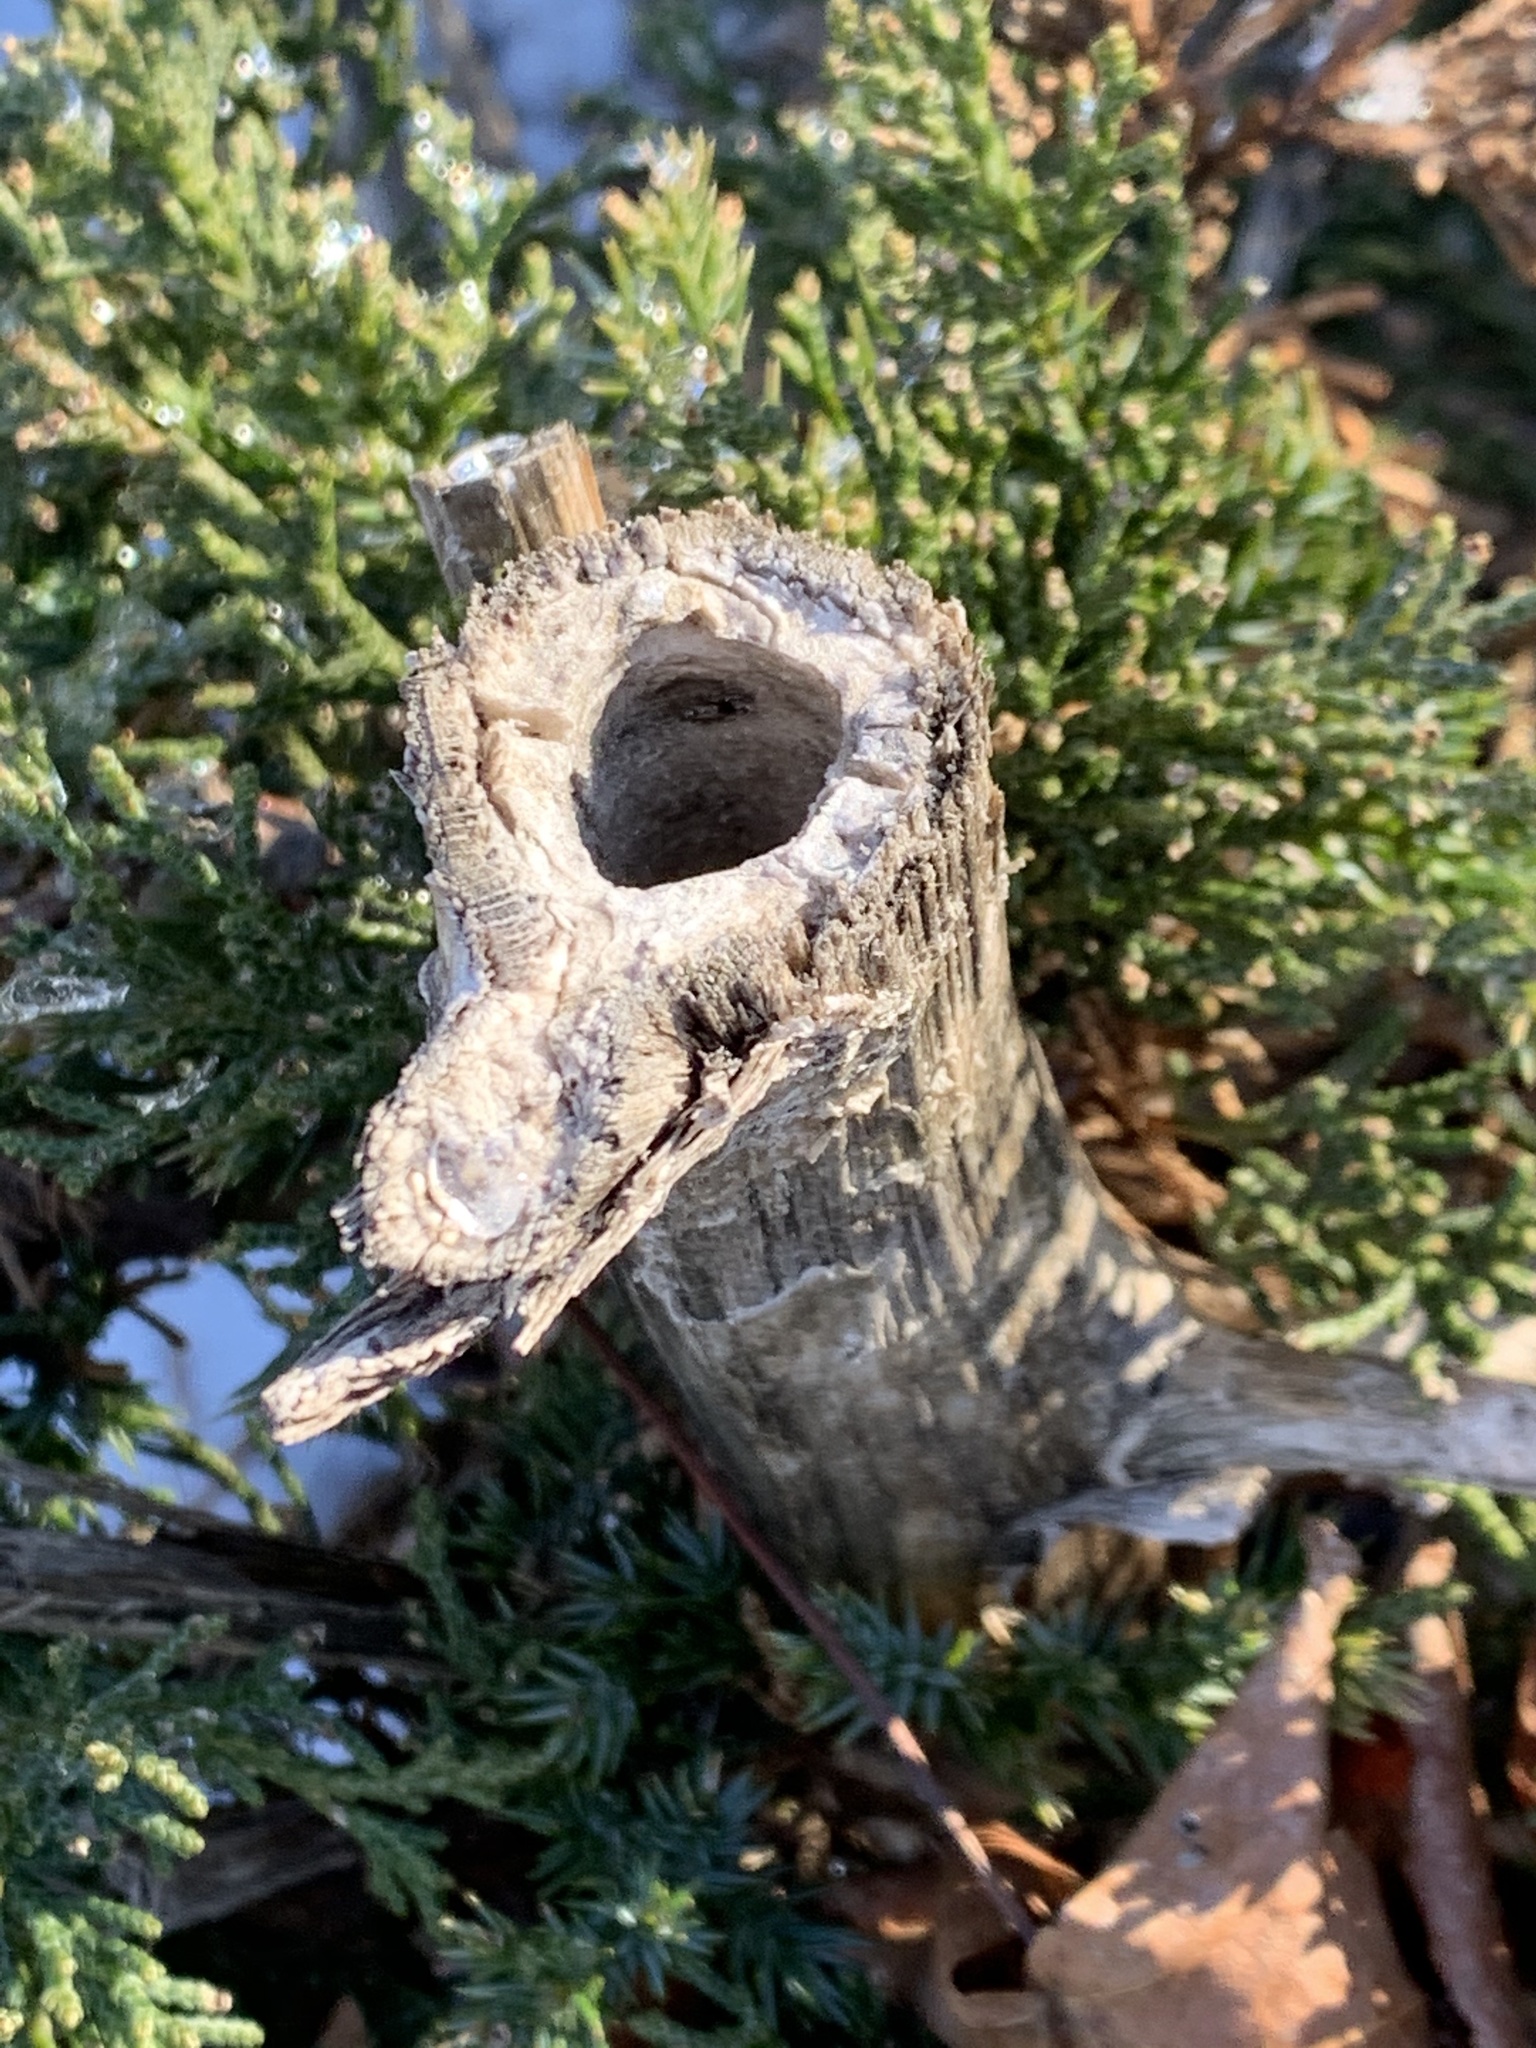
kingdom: Plantae
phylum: Tracheophyta
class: Magnoliopsida
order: Asterales
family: Asteraceae
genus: Cirsium
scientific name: Cirsium vulgare
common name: Bull thistle
